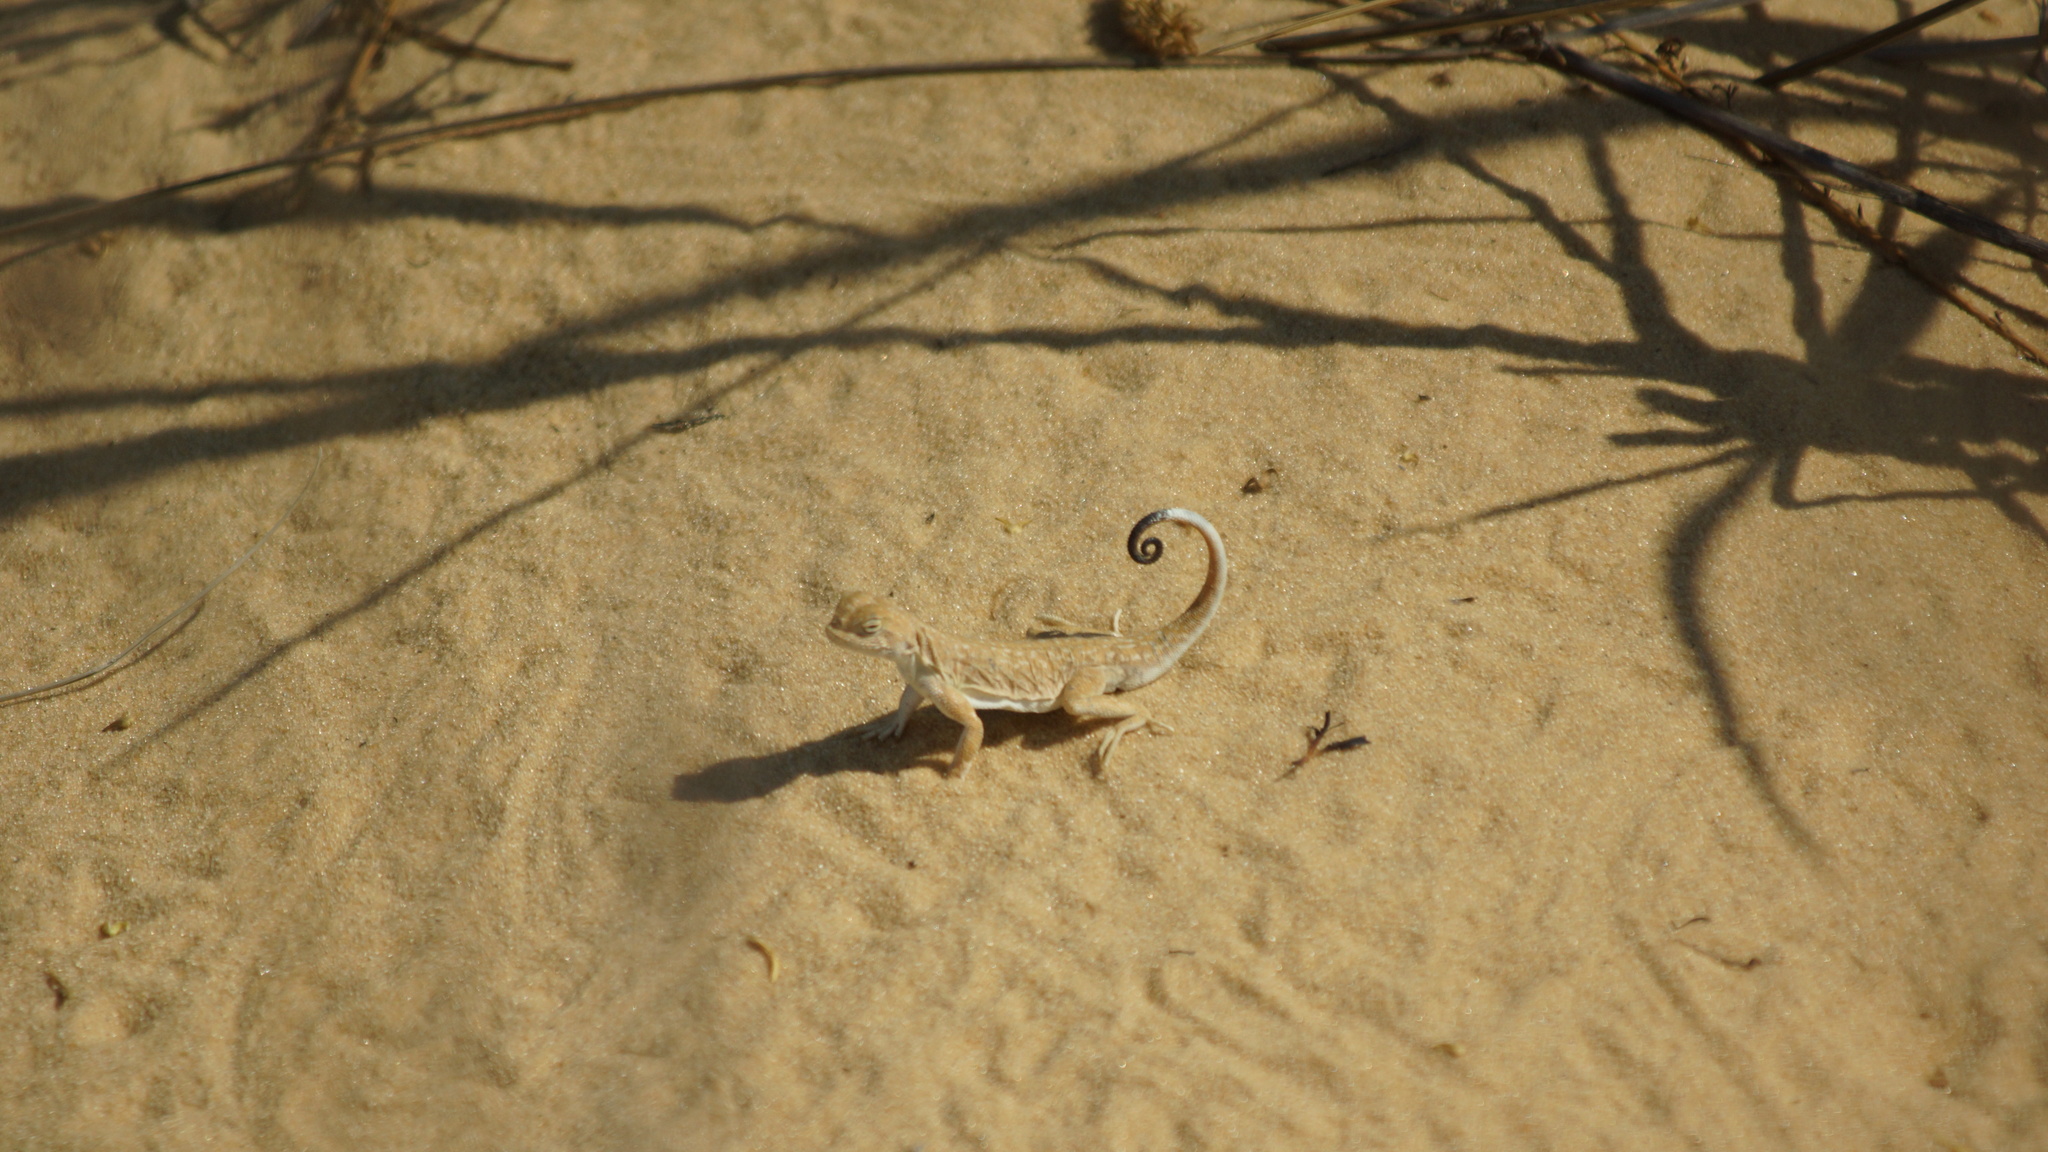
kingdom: Animalia
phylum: Chordata
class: Squamata
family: Agamidae
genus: Phrynocephalus
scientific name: Phrynocephalus guttatus
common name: Spotted toadhead agama
